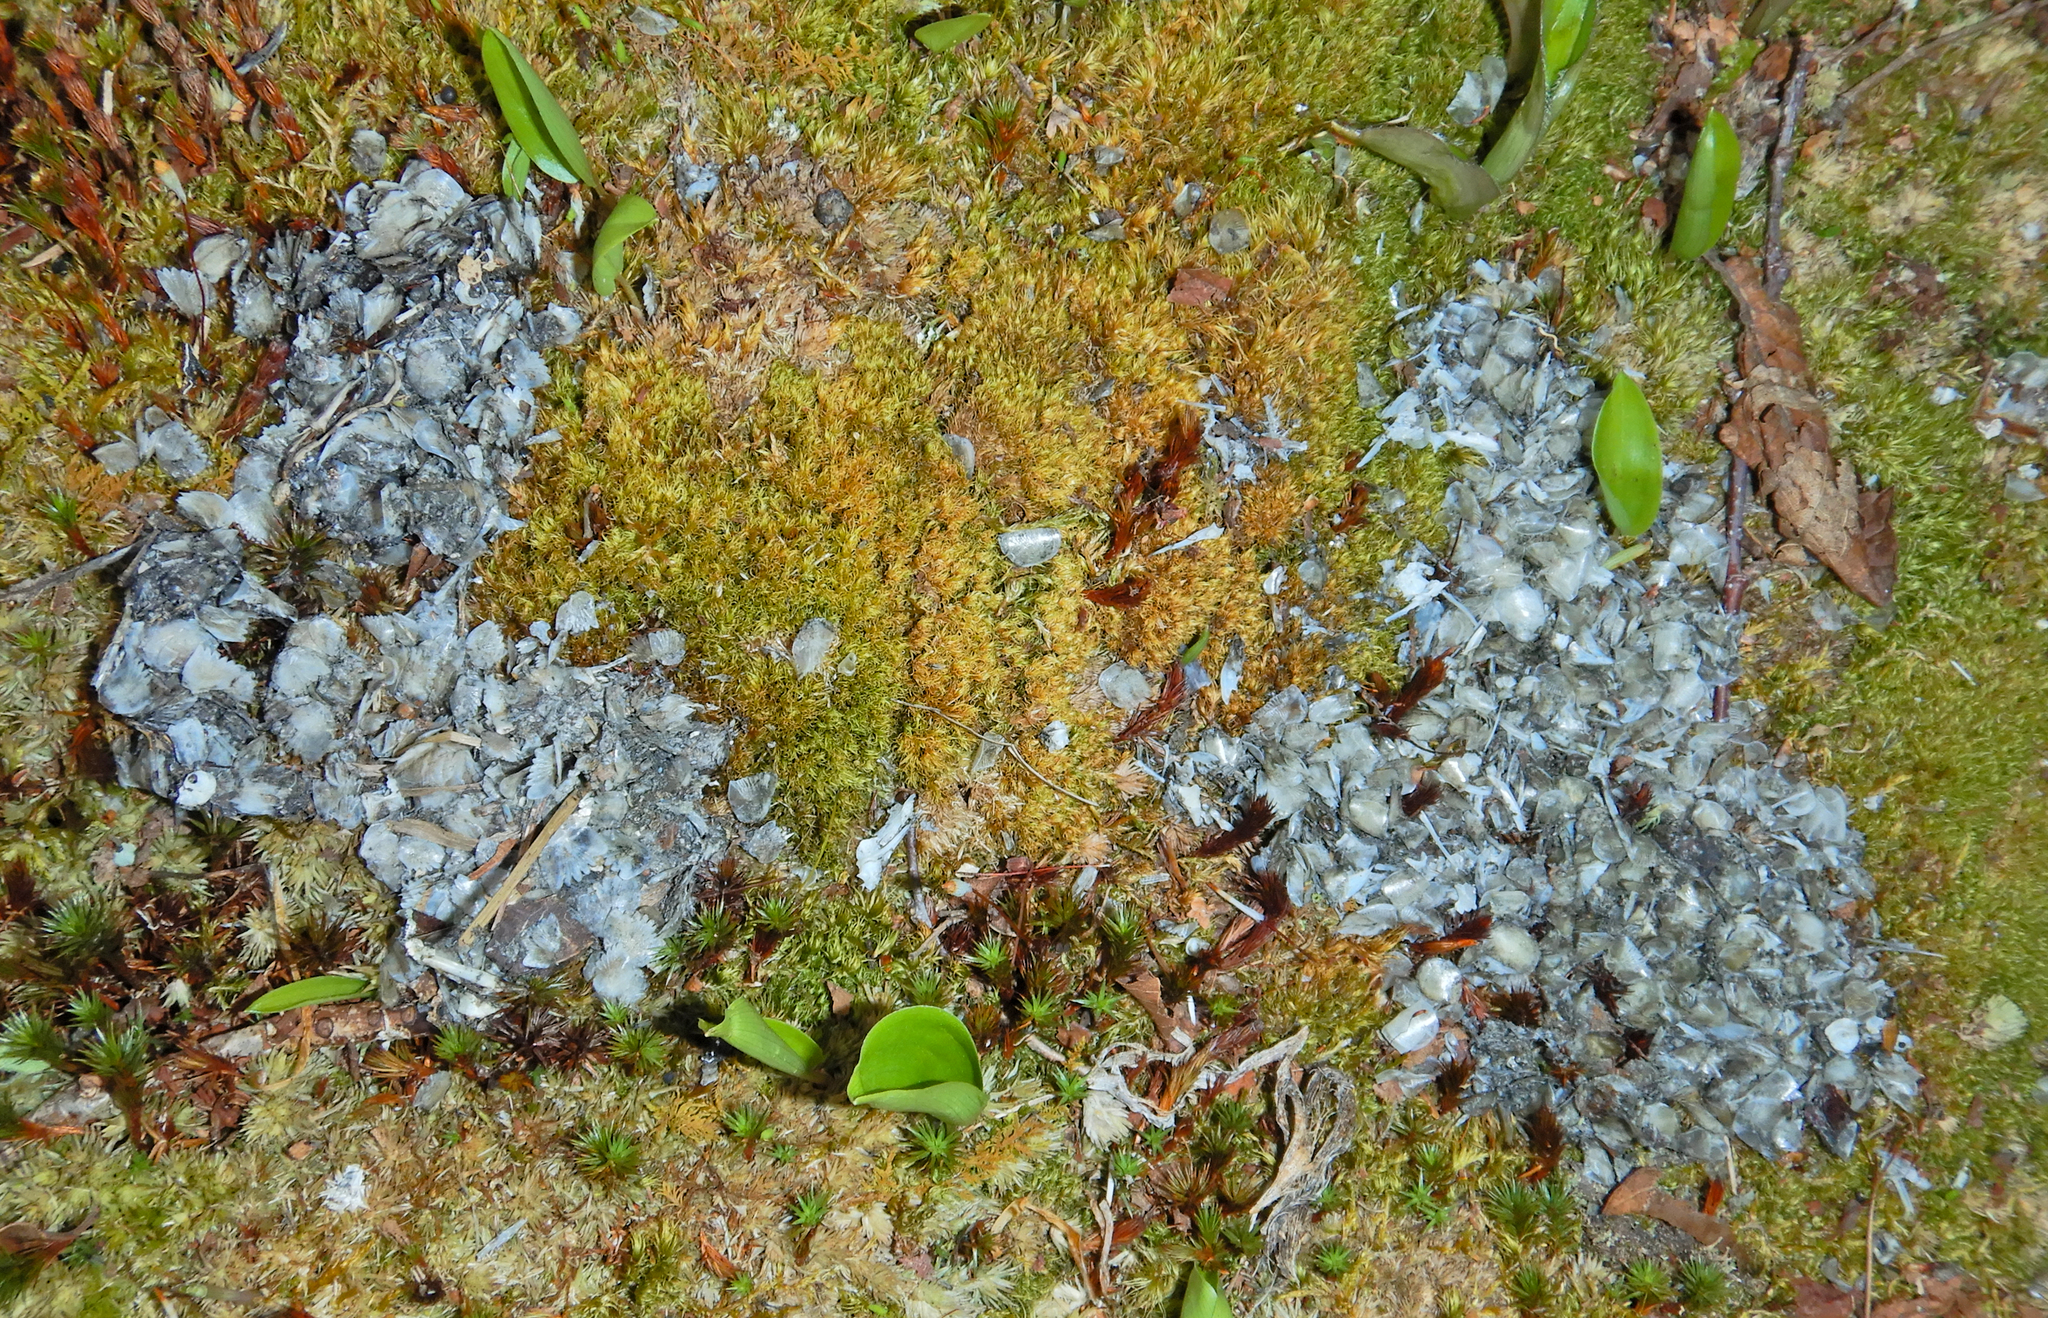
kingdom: Animalia
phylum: Chordata
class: Mammalia
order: Carnivora
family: Mustelidae
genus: Lontra
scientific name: Lontra canadensis
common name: North american river otter
